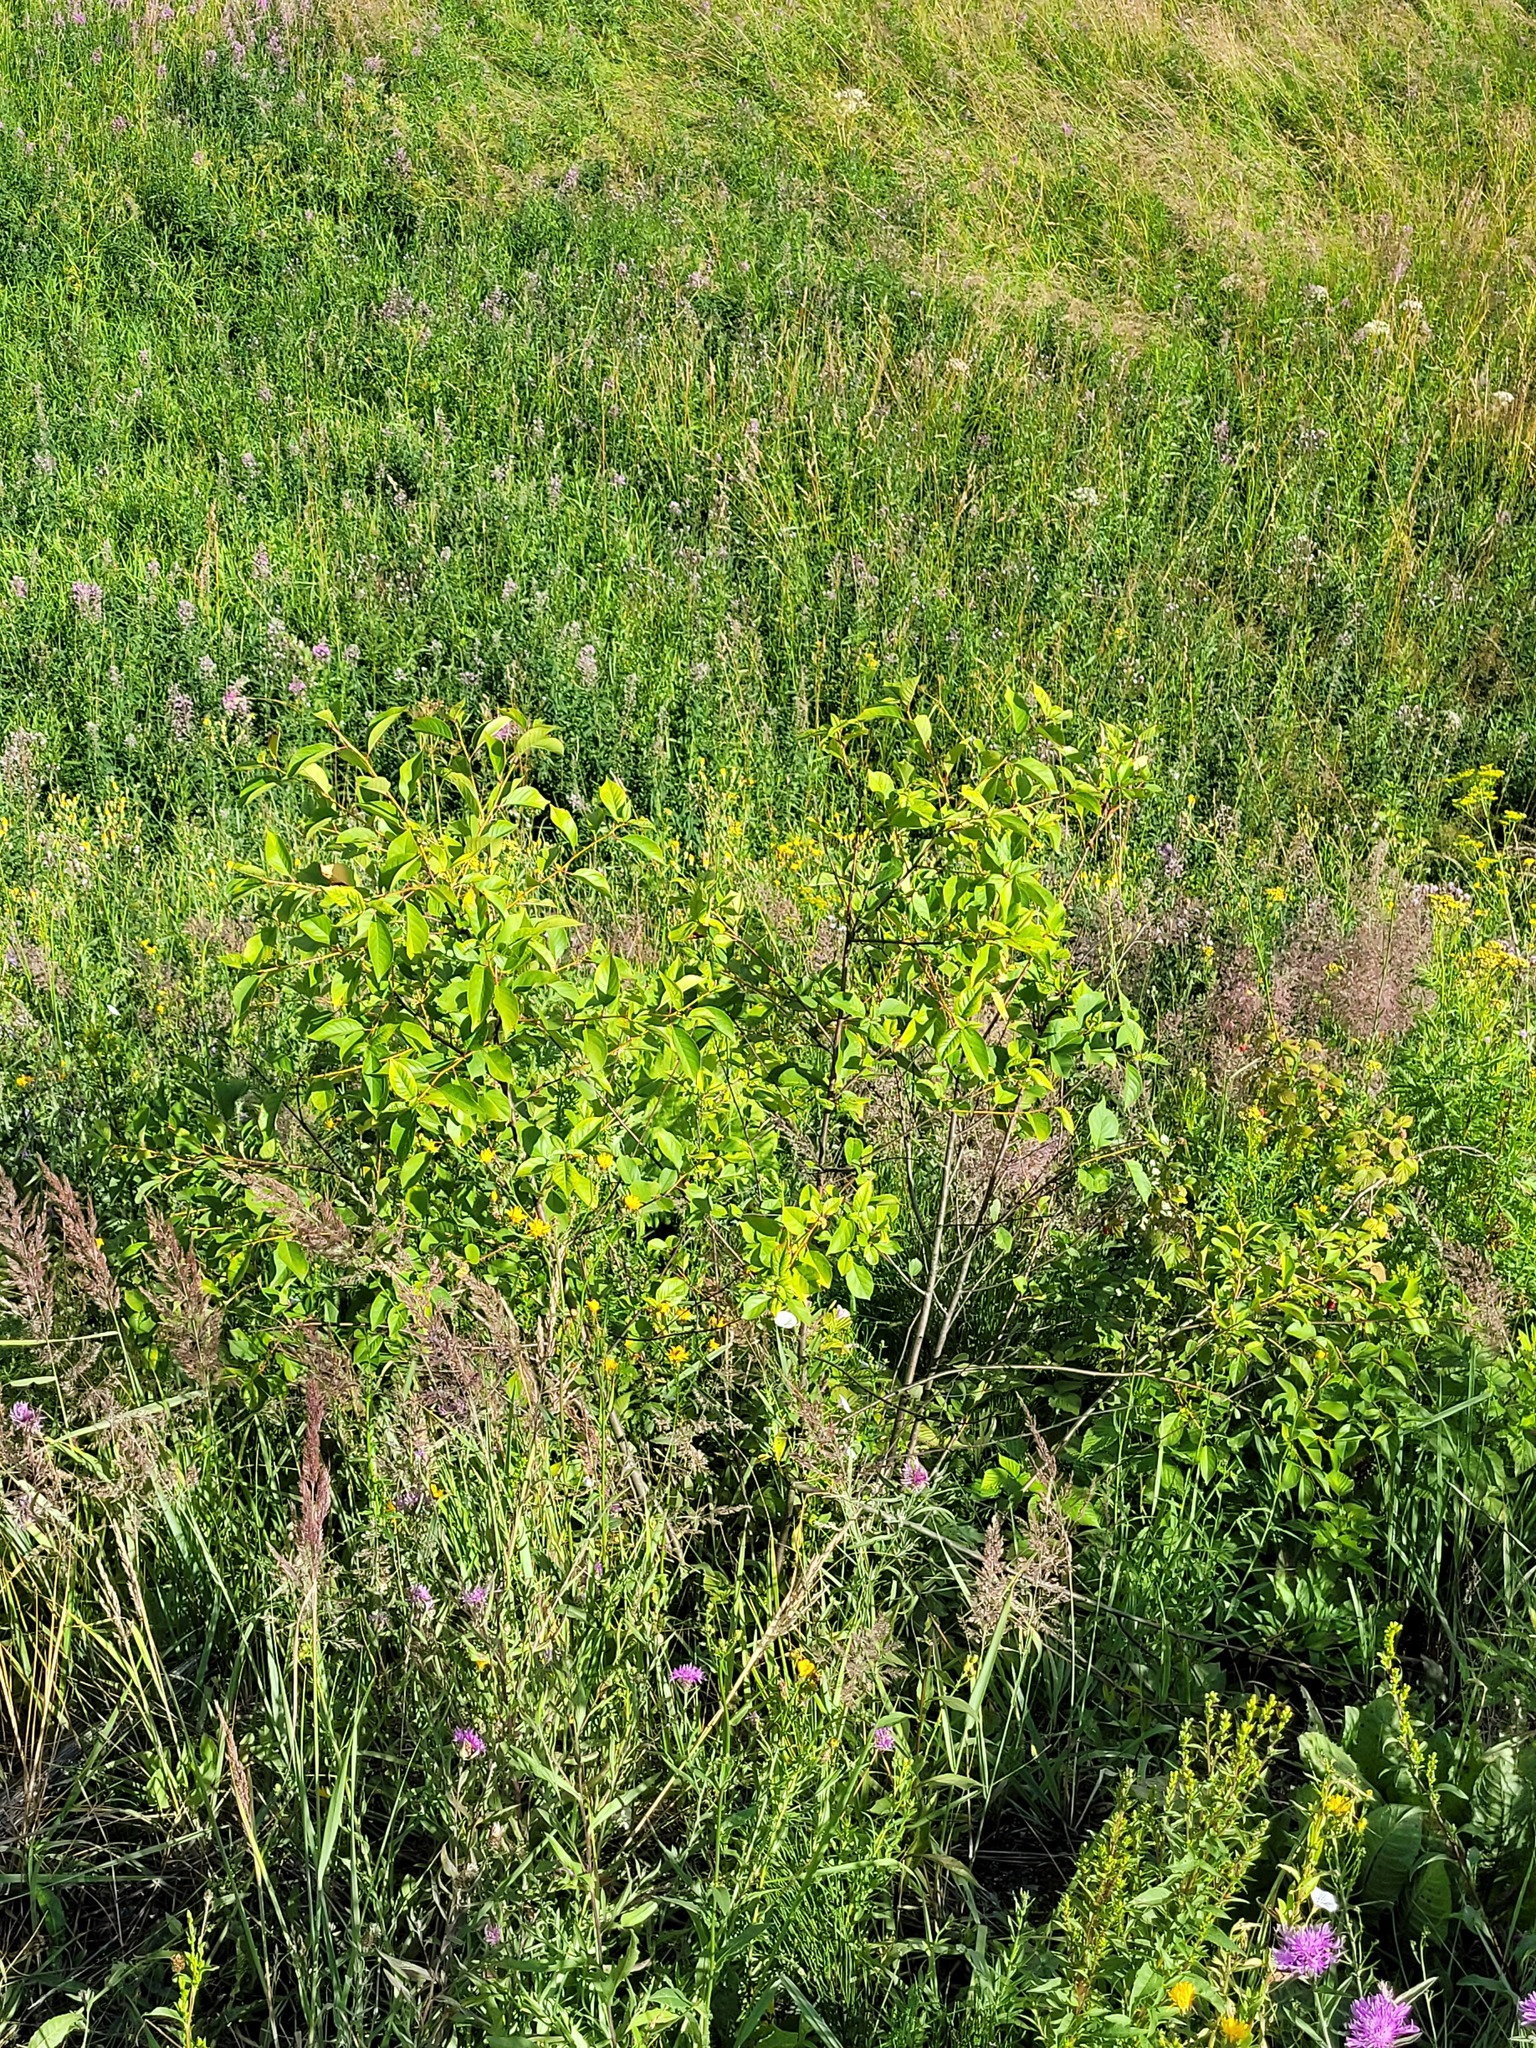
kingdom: Plantae
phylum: Tracheophyta
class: Magnoliopsida
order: Rosales
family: Rosaceae
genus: Prunus
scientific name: Prunus cerasus
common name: Morello cherry
